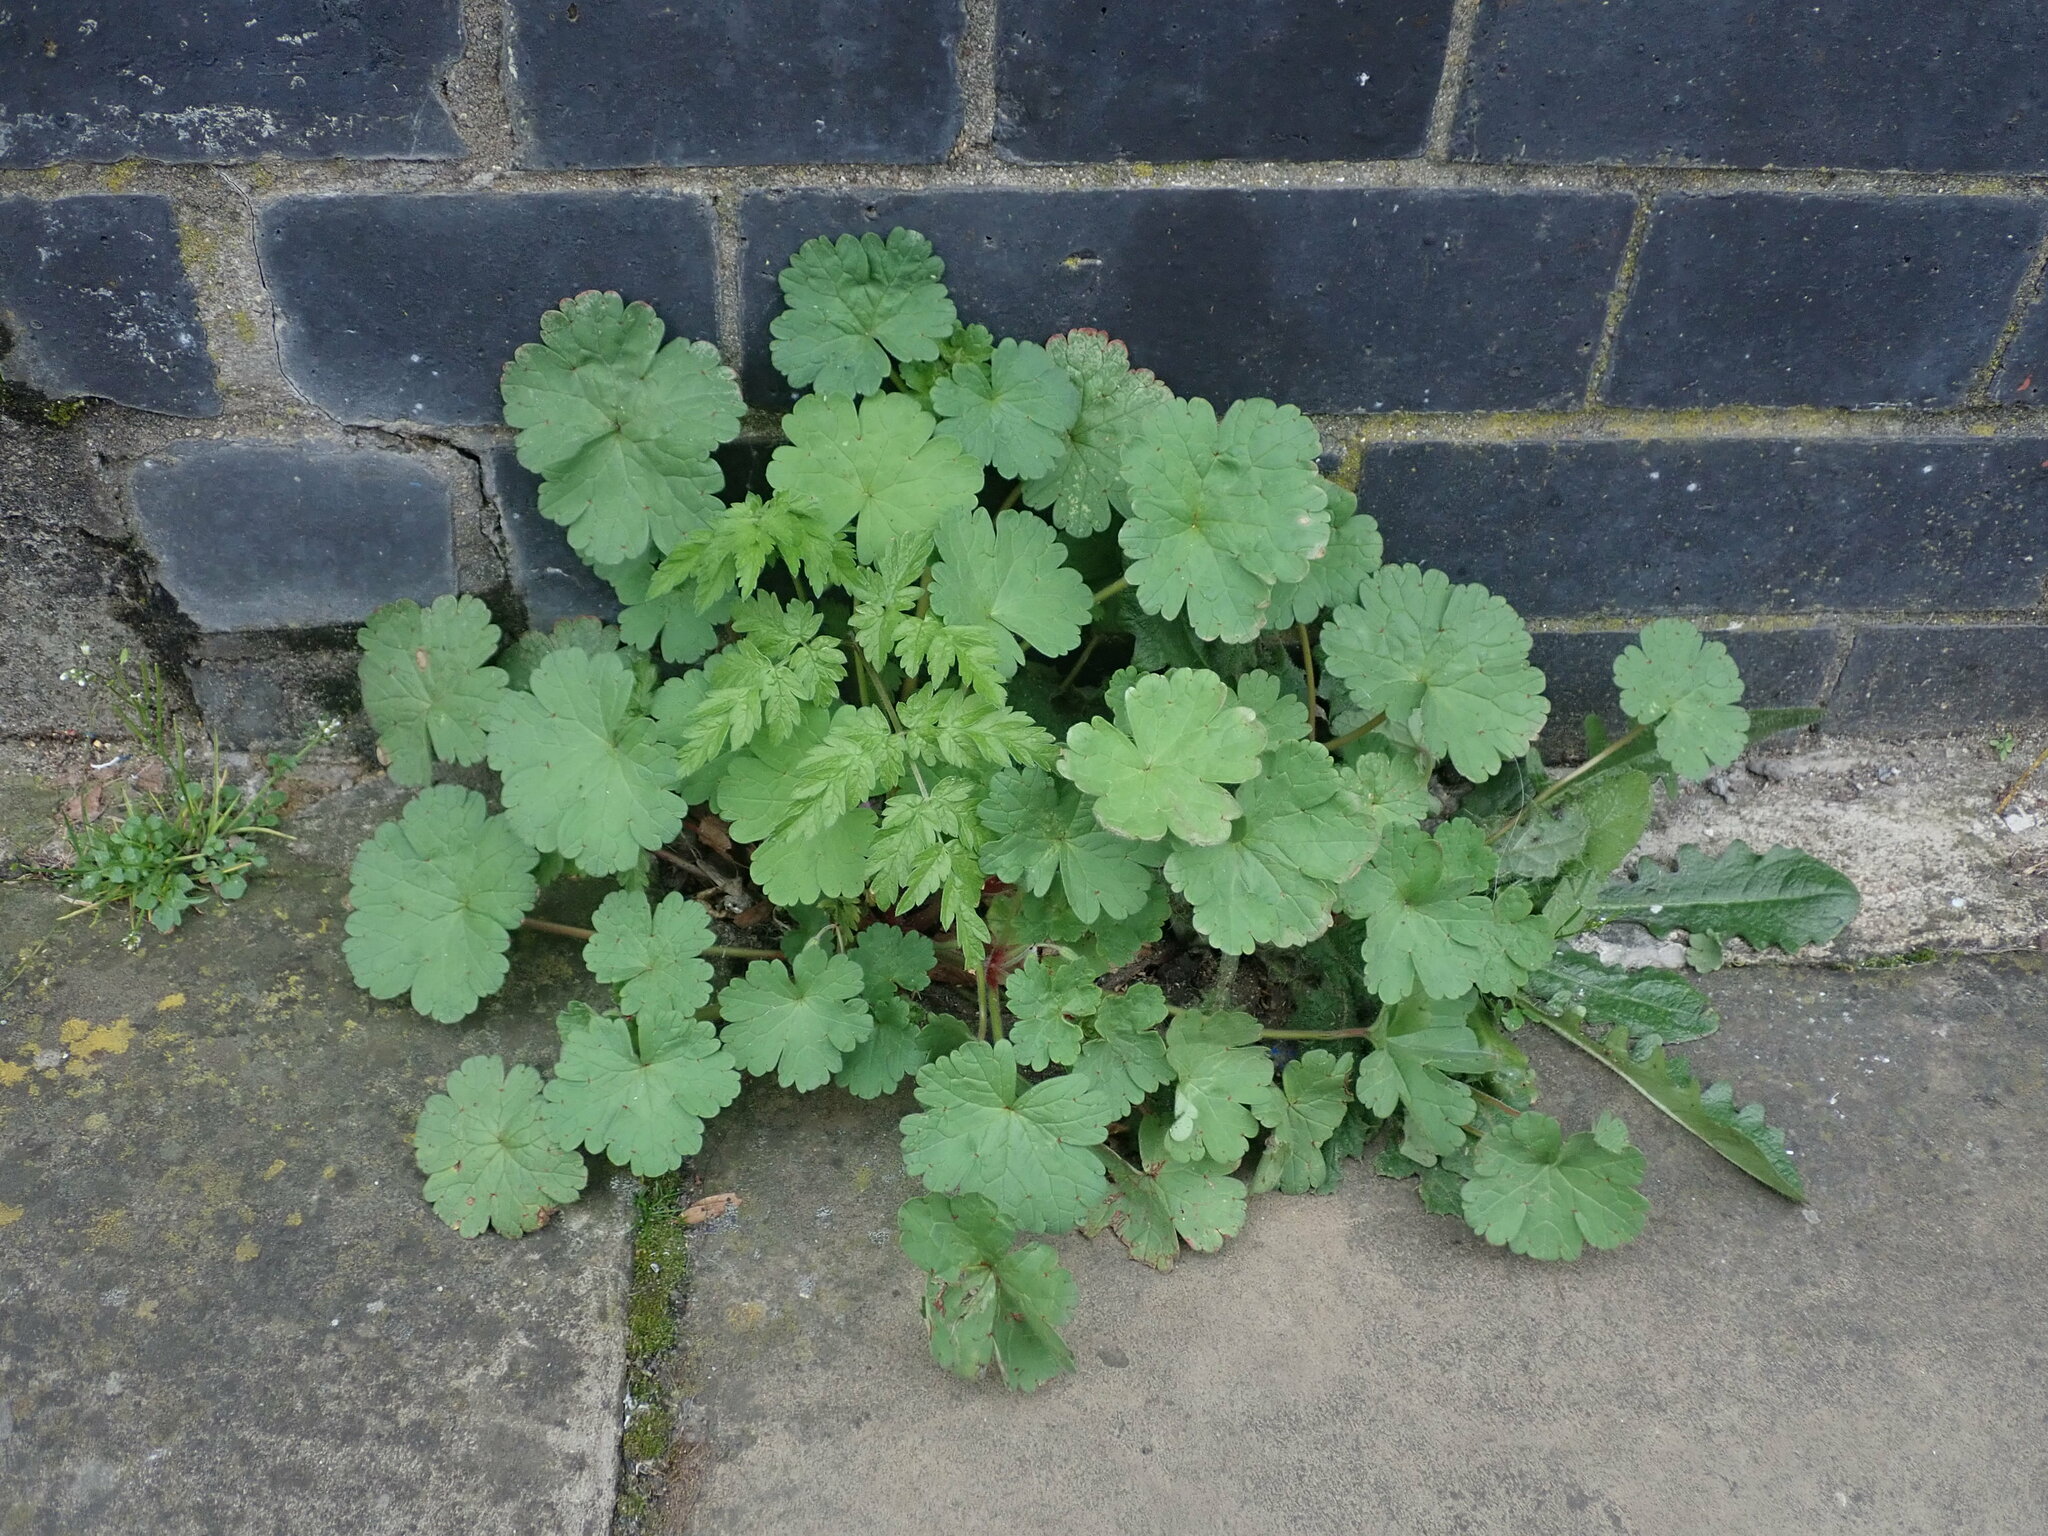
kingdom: Plantae
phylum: Tracheophyta
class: Magnoliopsida
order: Geraniales
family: Geraniaceae
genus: Geranium
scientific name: Geranium rotundifolium
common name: Round-leaved crane's-bill
